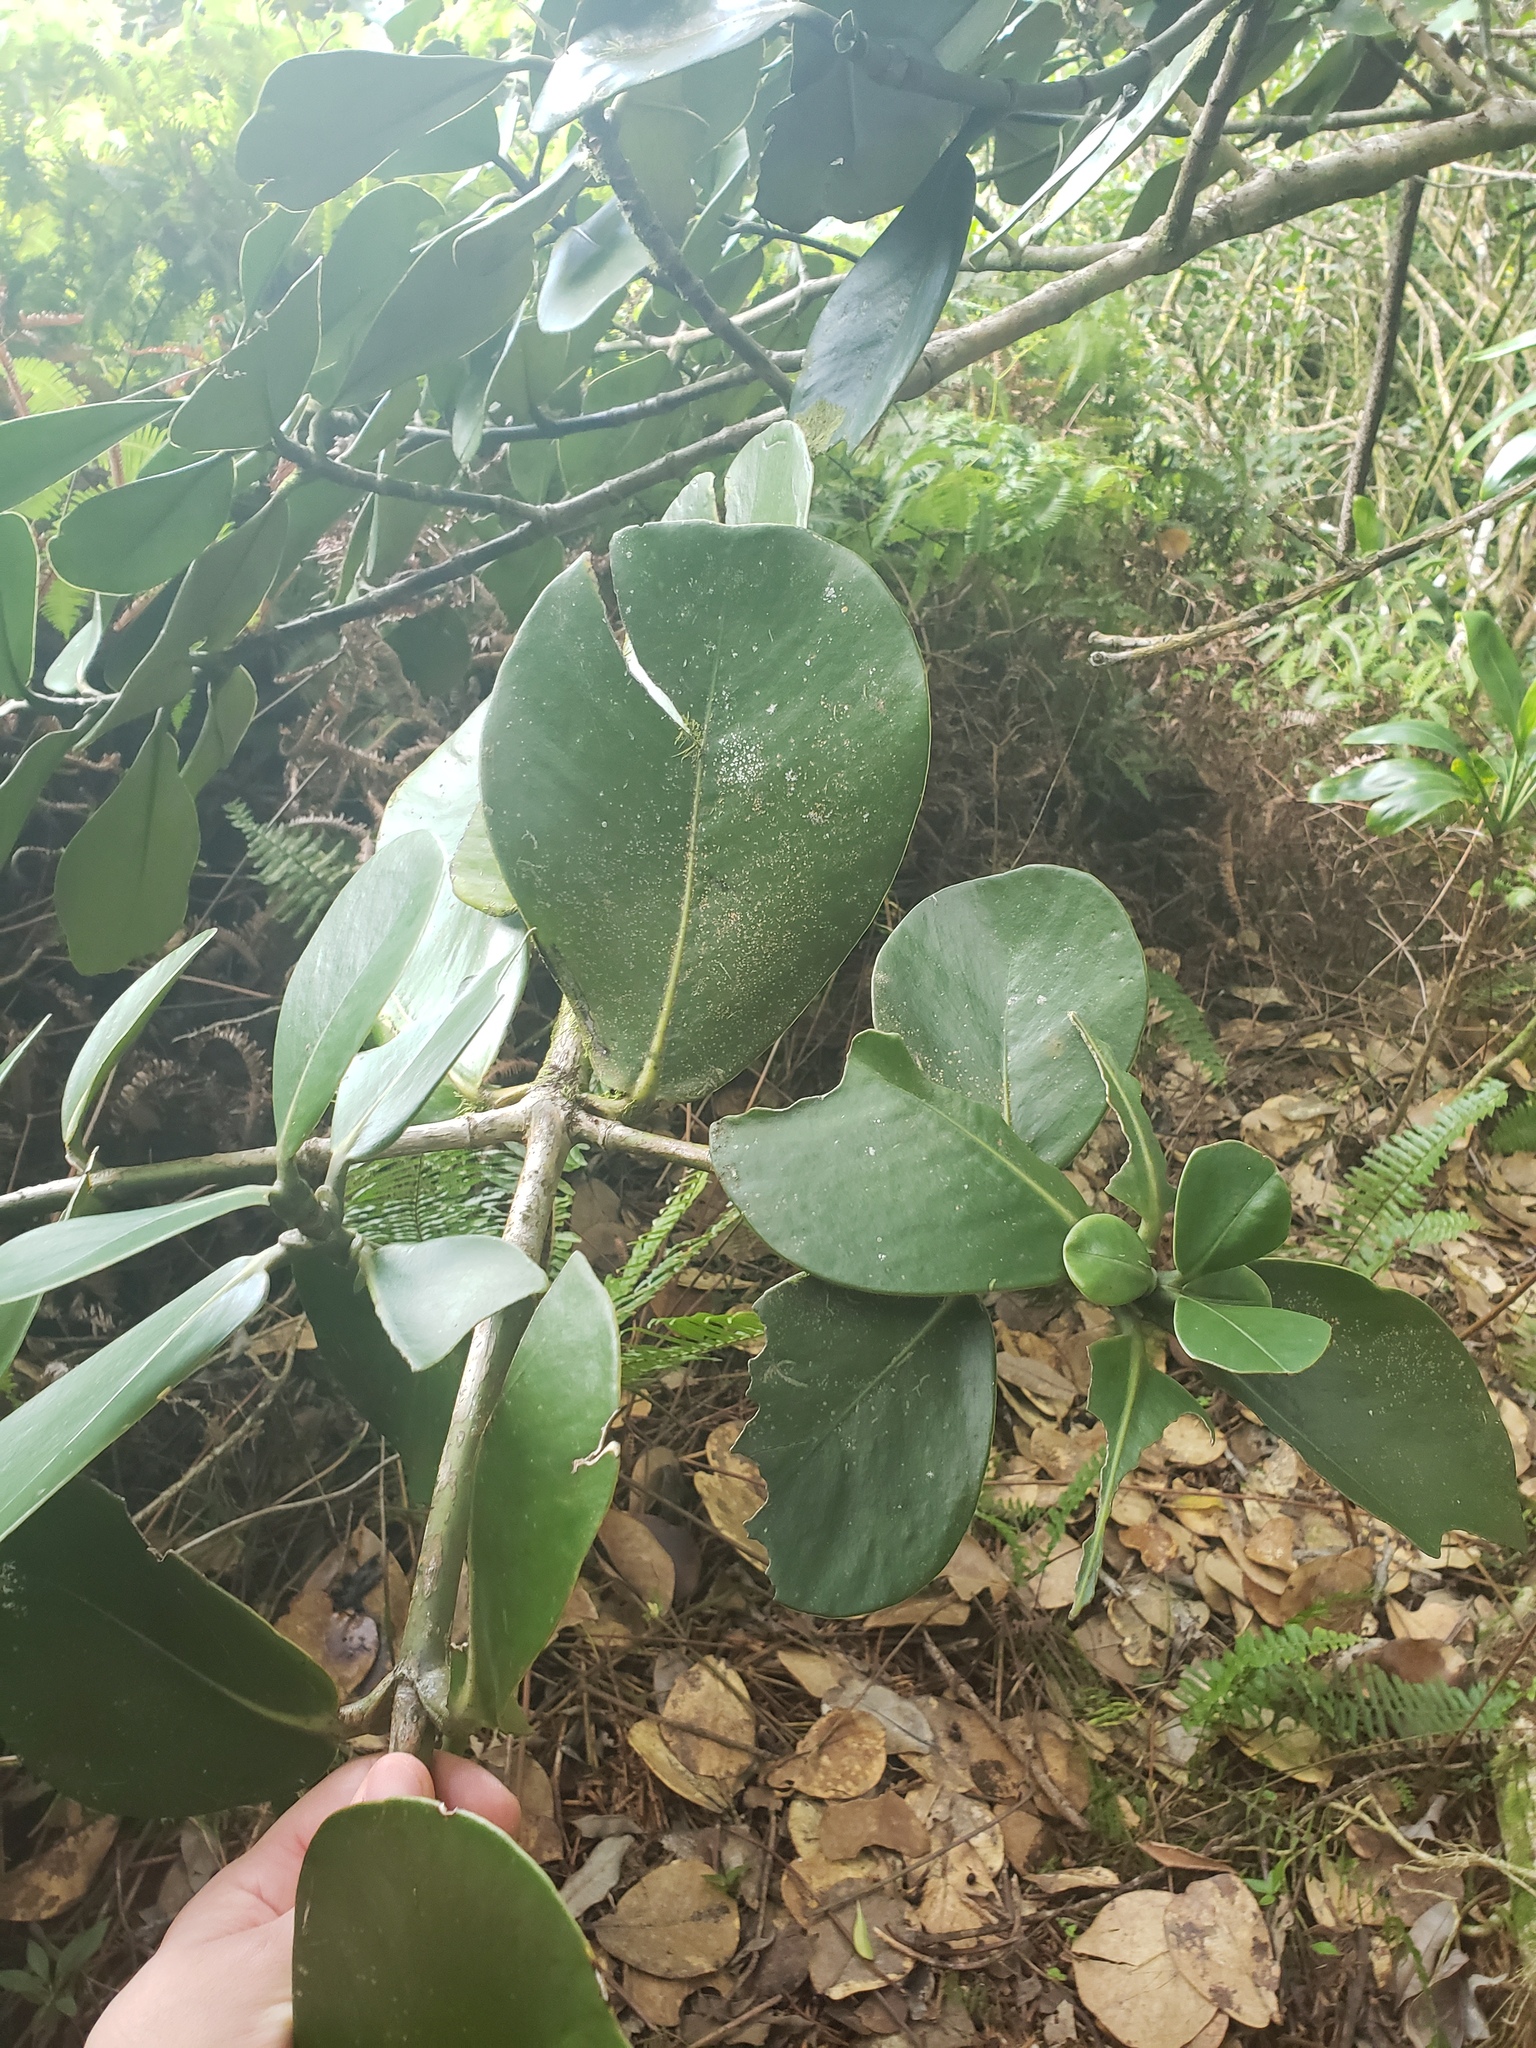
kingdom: Plantae
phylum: Tracheophyta
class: Magnoliopsida
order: Malpighiales
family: Clusiaceae
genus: Clusia
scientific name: Clusia rosea
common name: Scotch attorney
